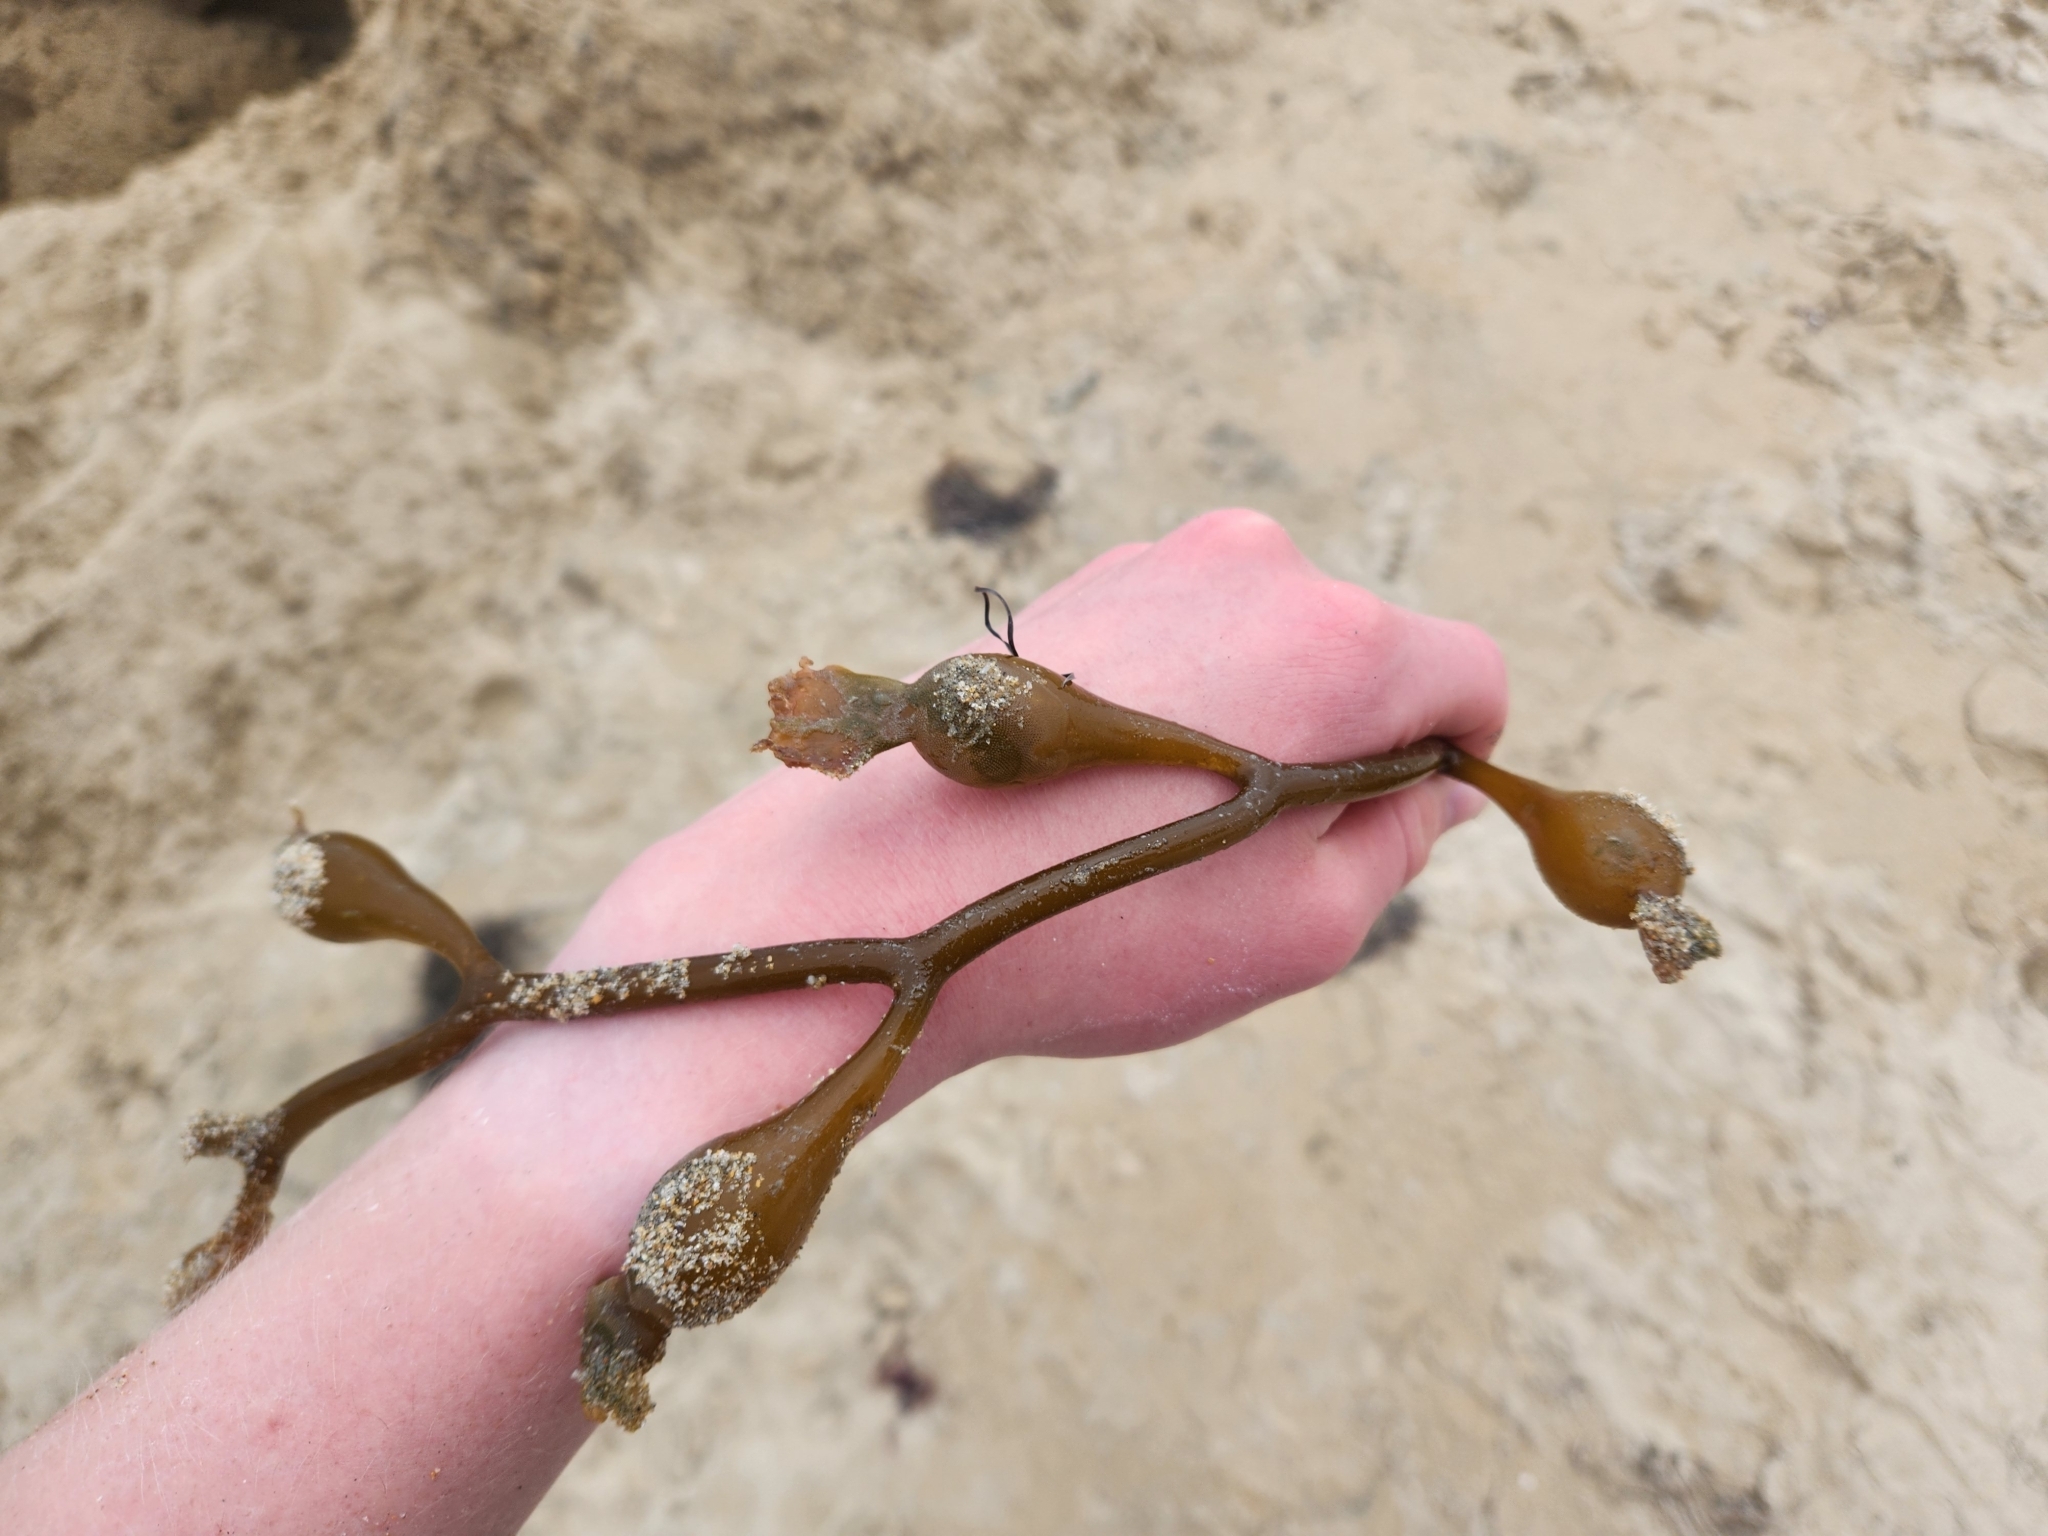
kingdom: Chromista
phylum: Ochrophyta
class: Phaeophyceae
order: Laminariales
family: Laminariaceae
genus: Macrocystis
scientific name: Macrocystis pyrifera
